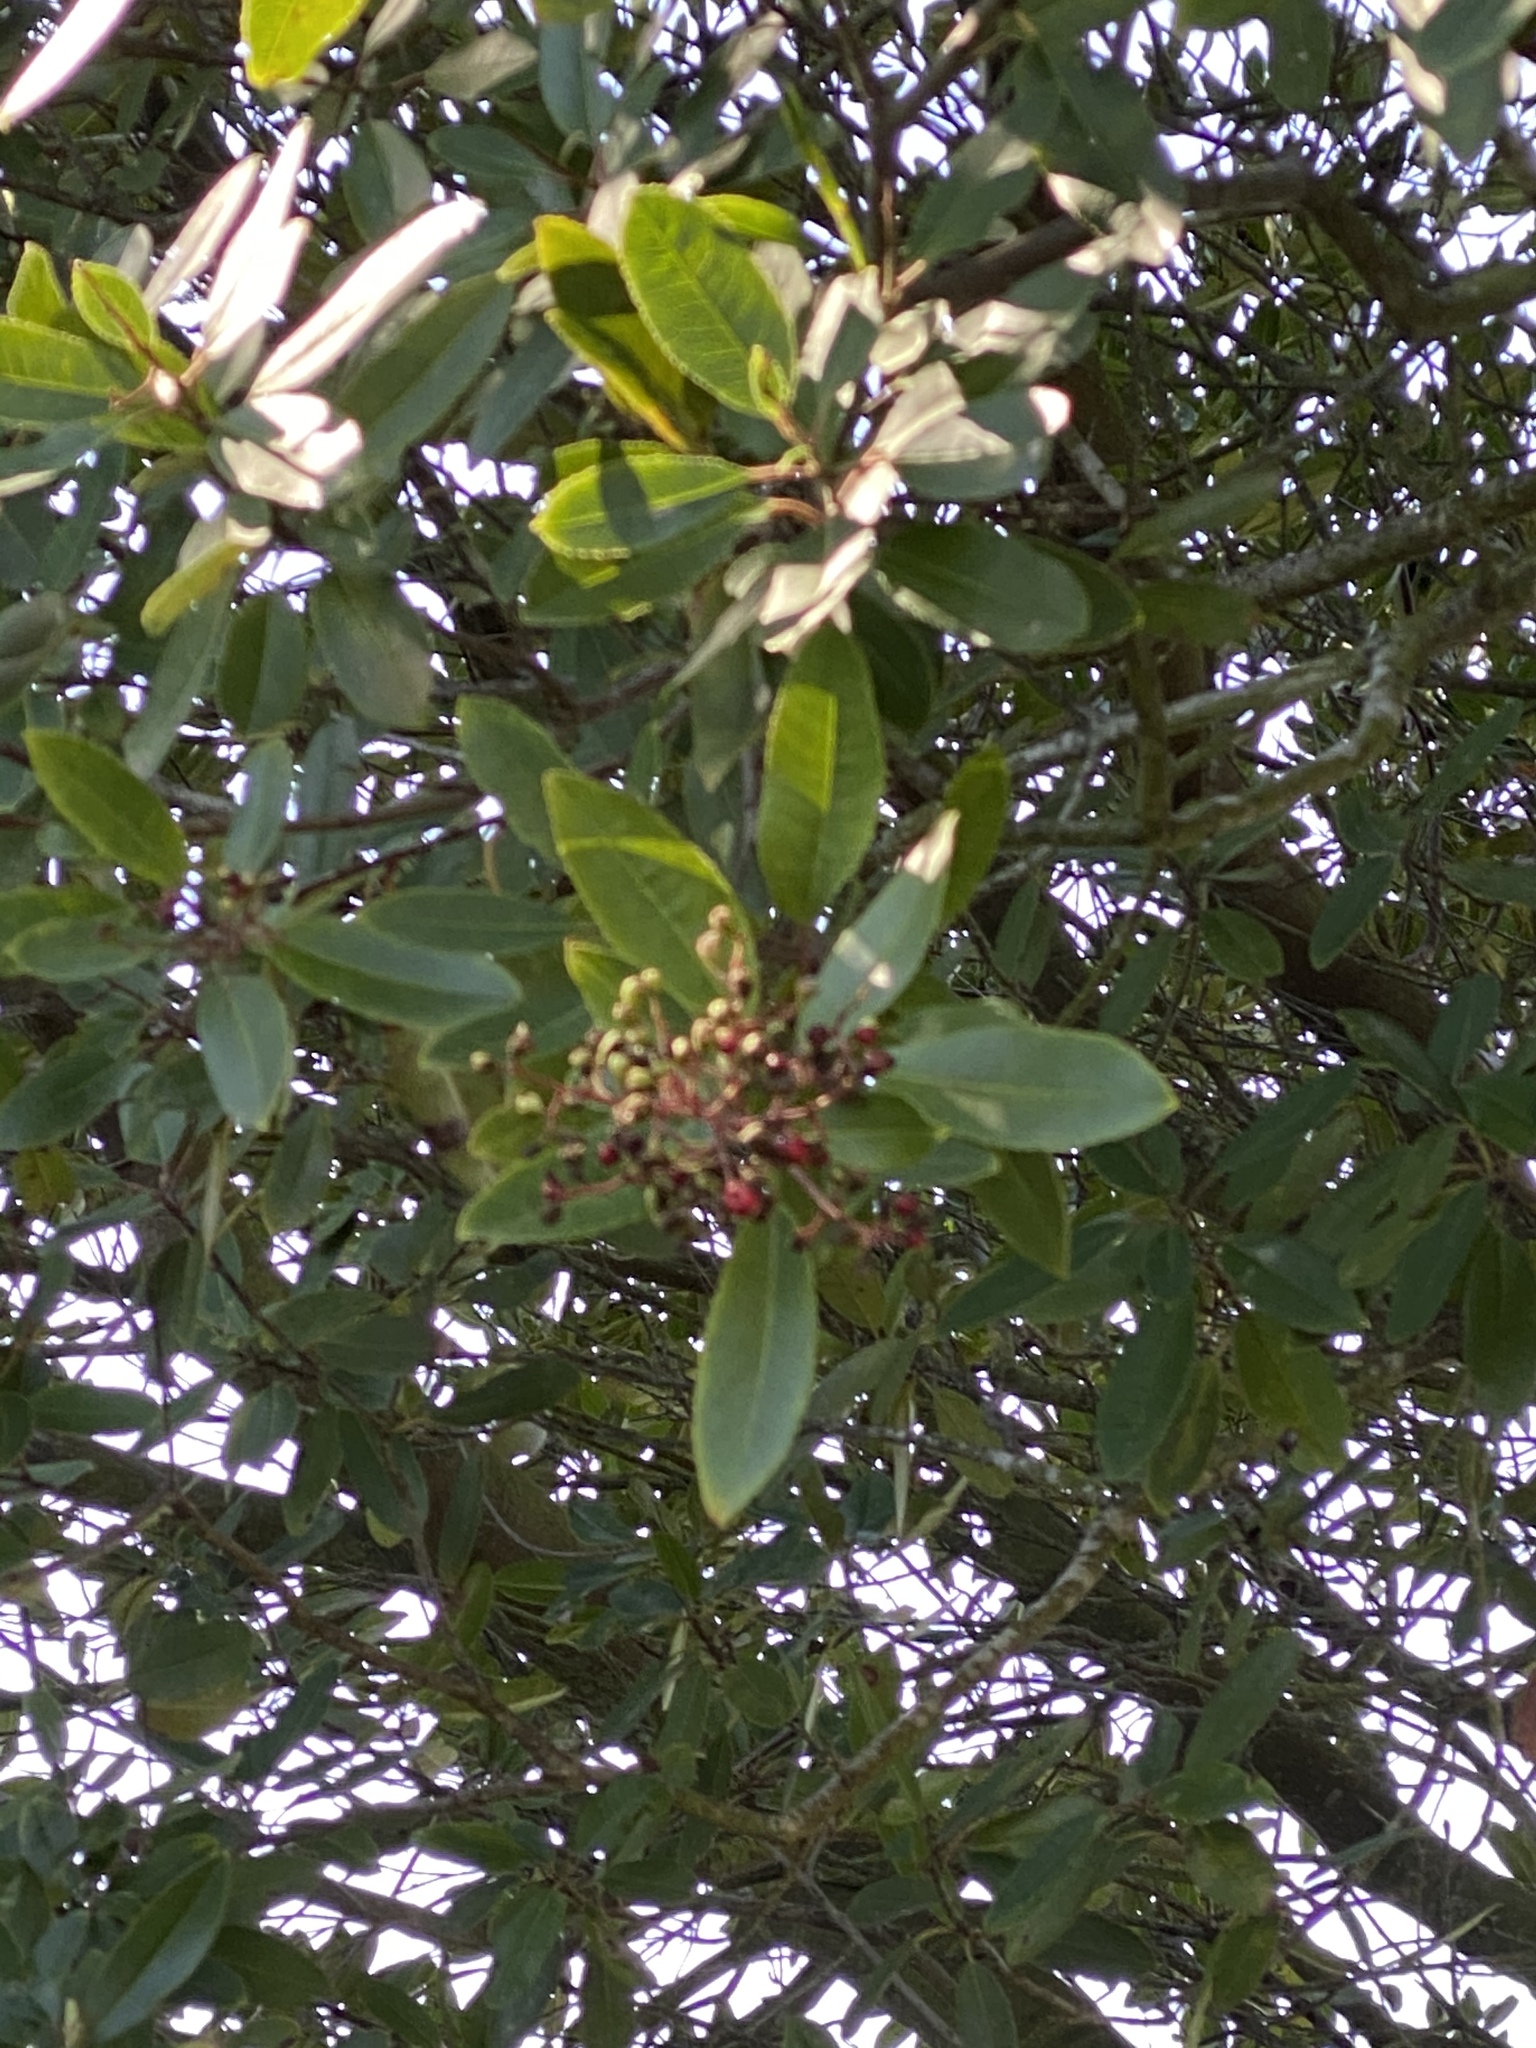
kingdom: Plantae
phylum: Tracheophyta
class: Magnoliopsida
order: Rosales
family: Rosaceae
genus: Heteromeles
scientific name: Heteromeles arbutifolia
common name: California-holly
